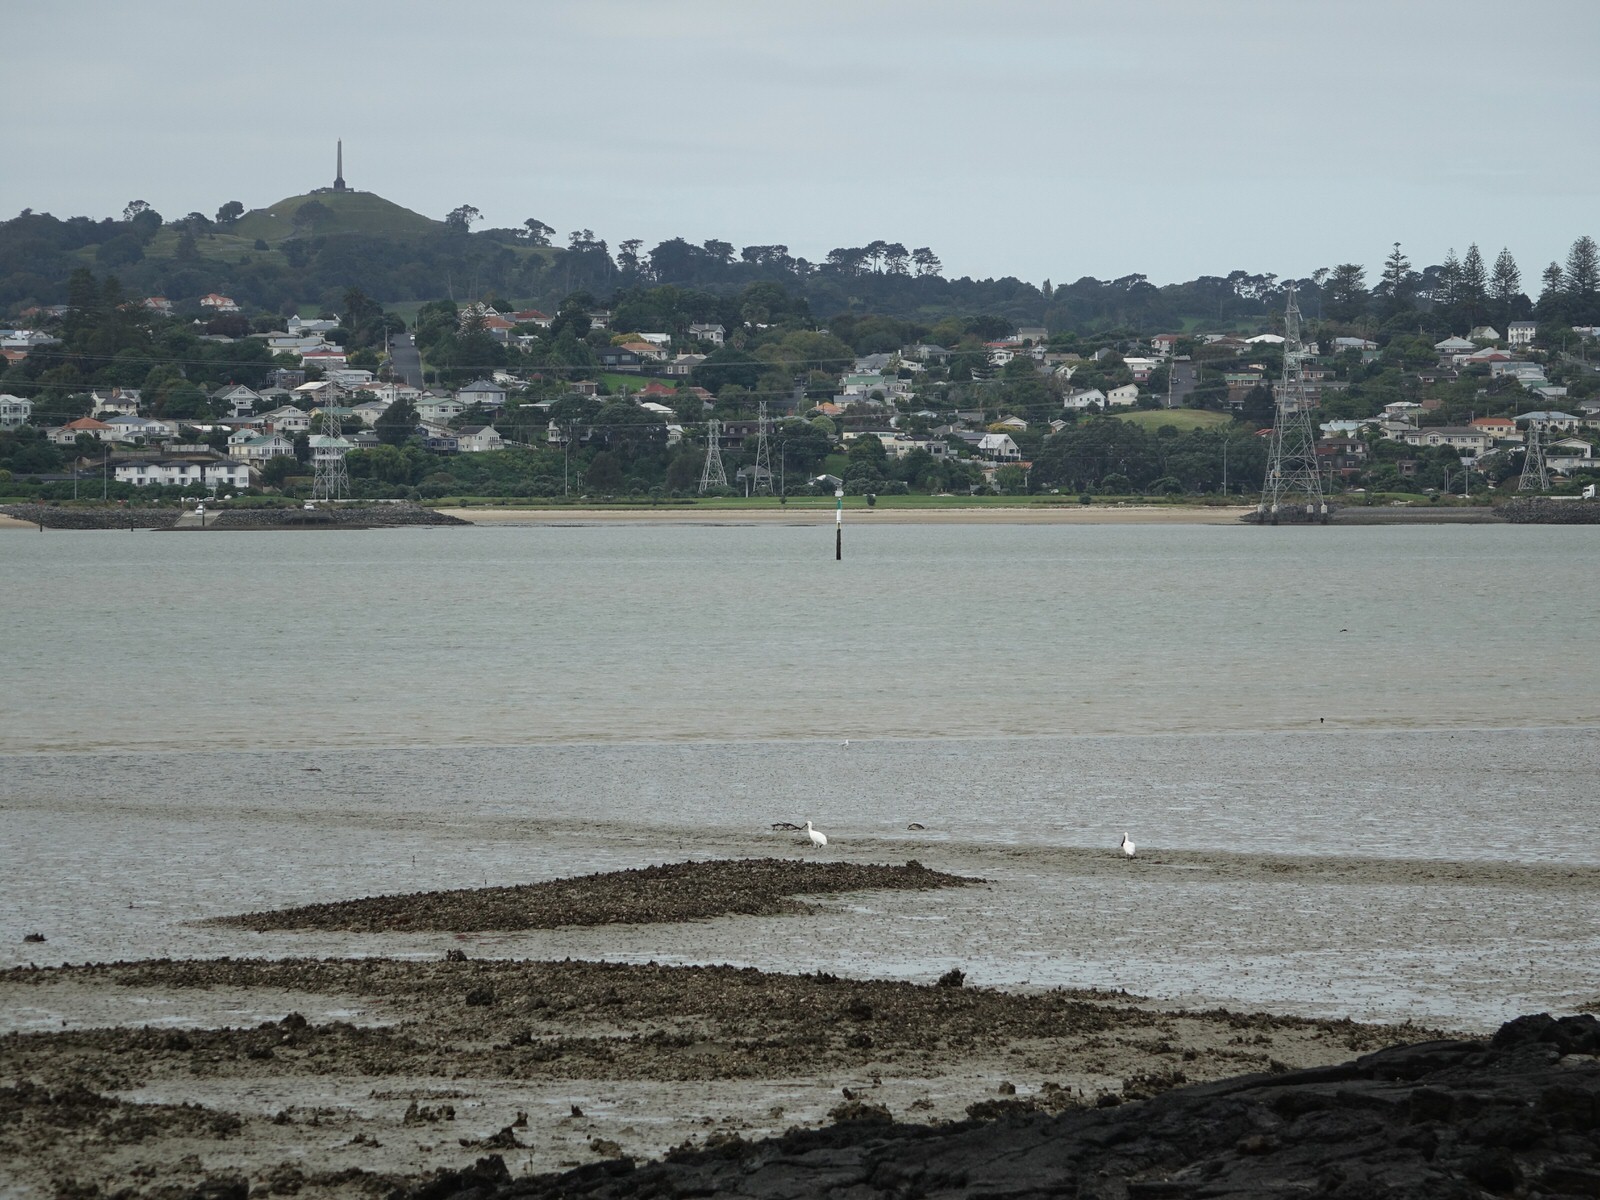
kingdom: Animalia
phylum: Chordata
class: Aves
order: Pelecaniformes
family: Threskiornithidae
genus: Platalea
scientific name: Platalea regia
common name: Royal spoonbill
